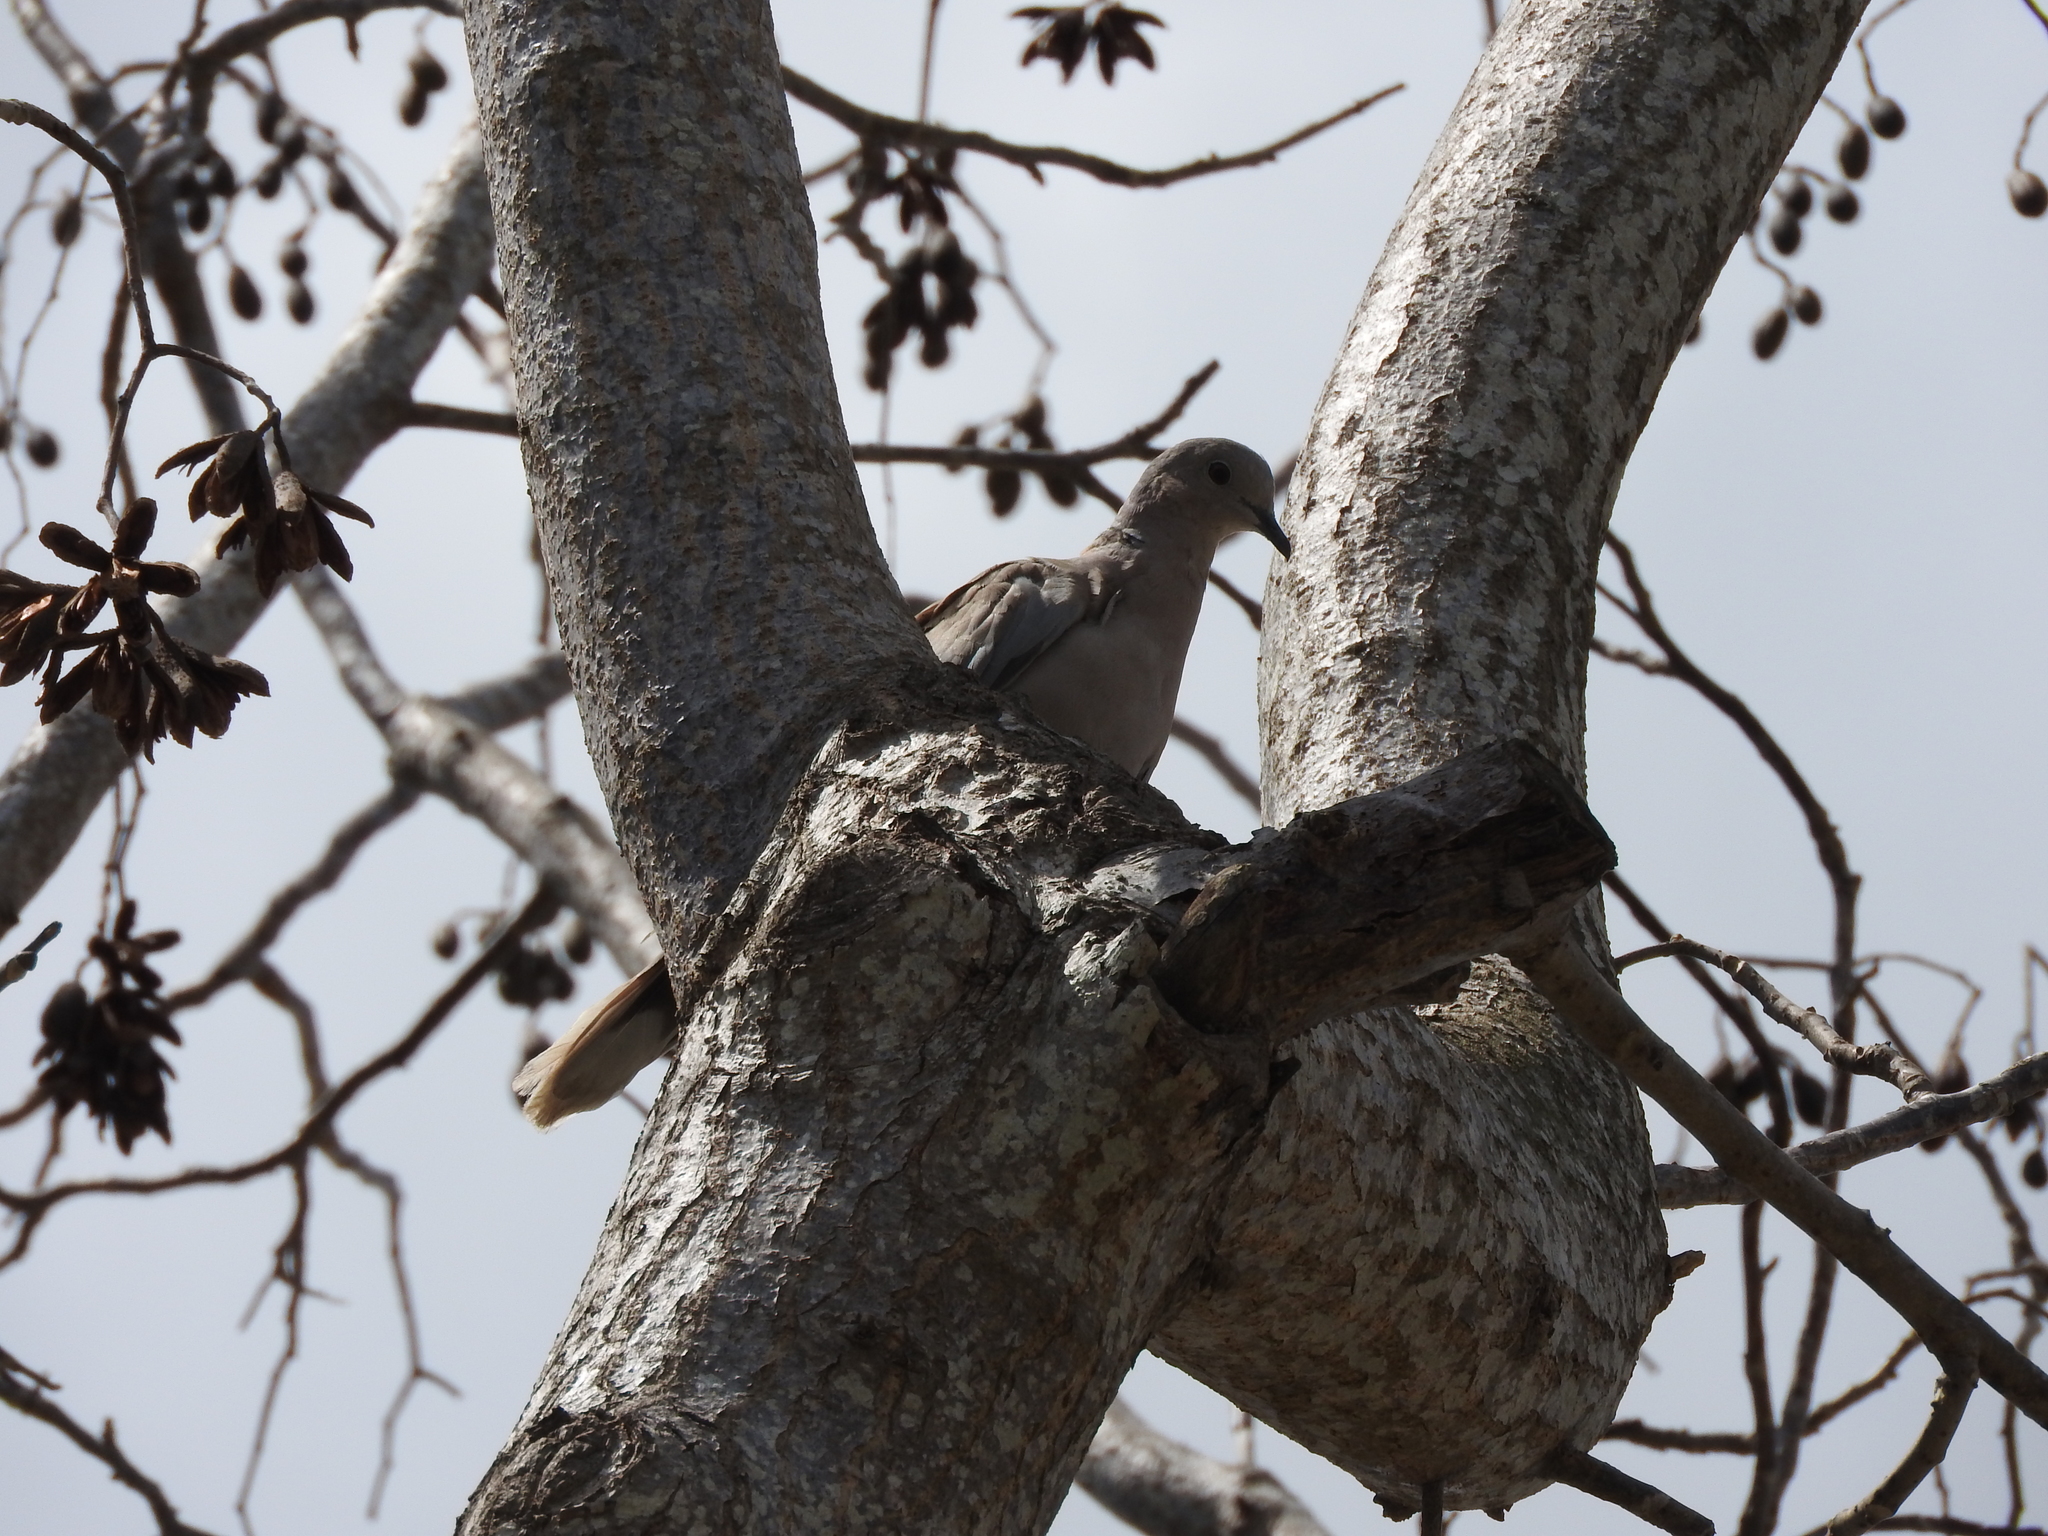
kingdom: Animalia
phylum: Chordata
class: Aves
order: Columbiformes
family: Columbidae
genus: Streptopelia
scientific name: Streptopelia decaocto
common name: Eurasian collared dove
